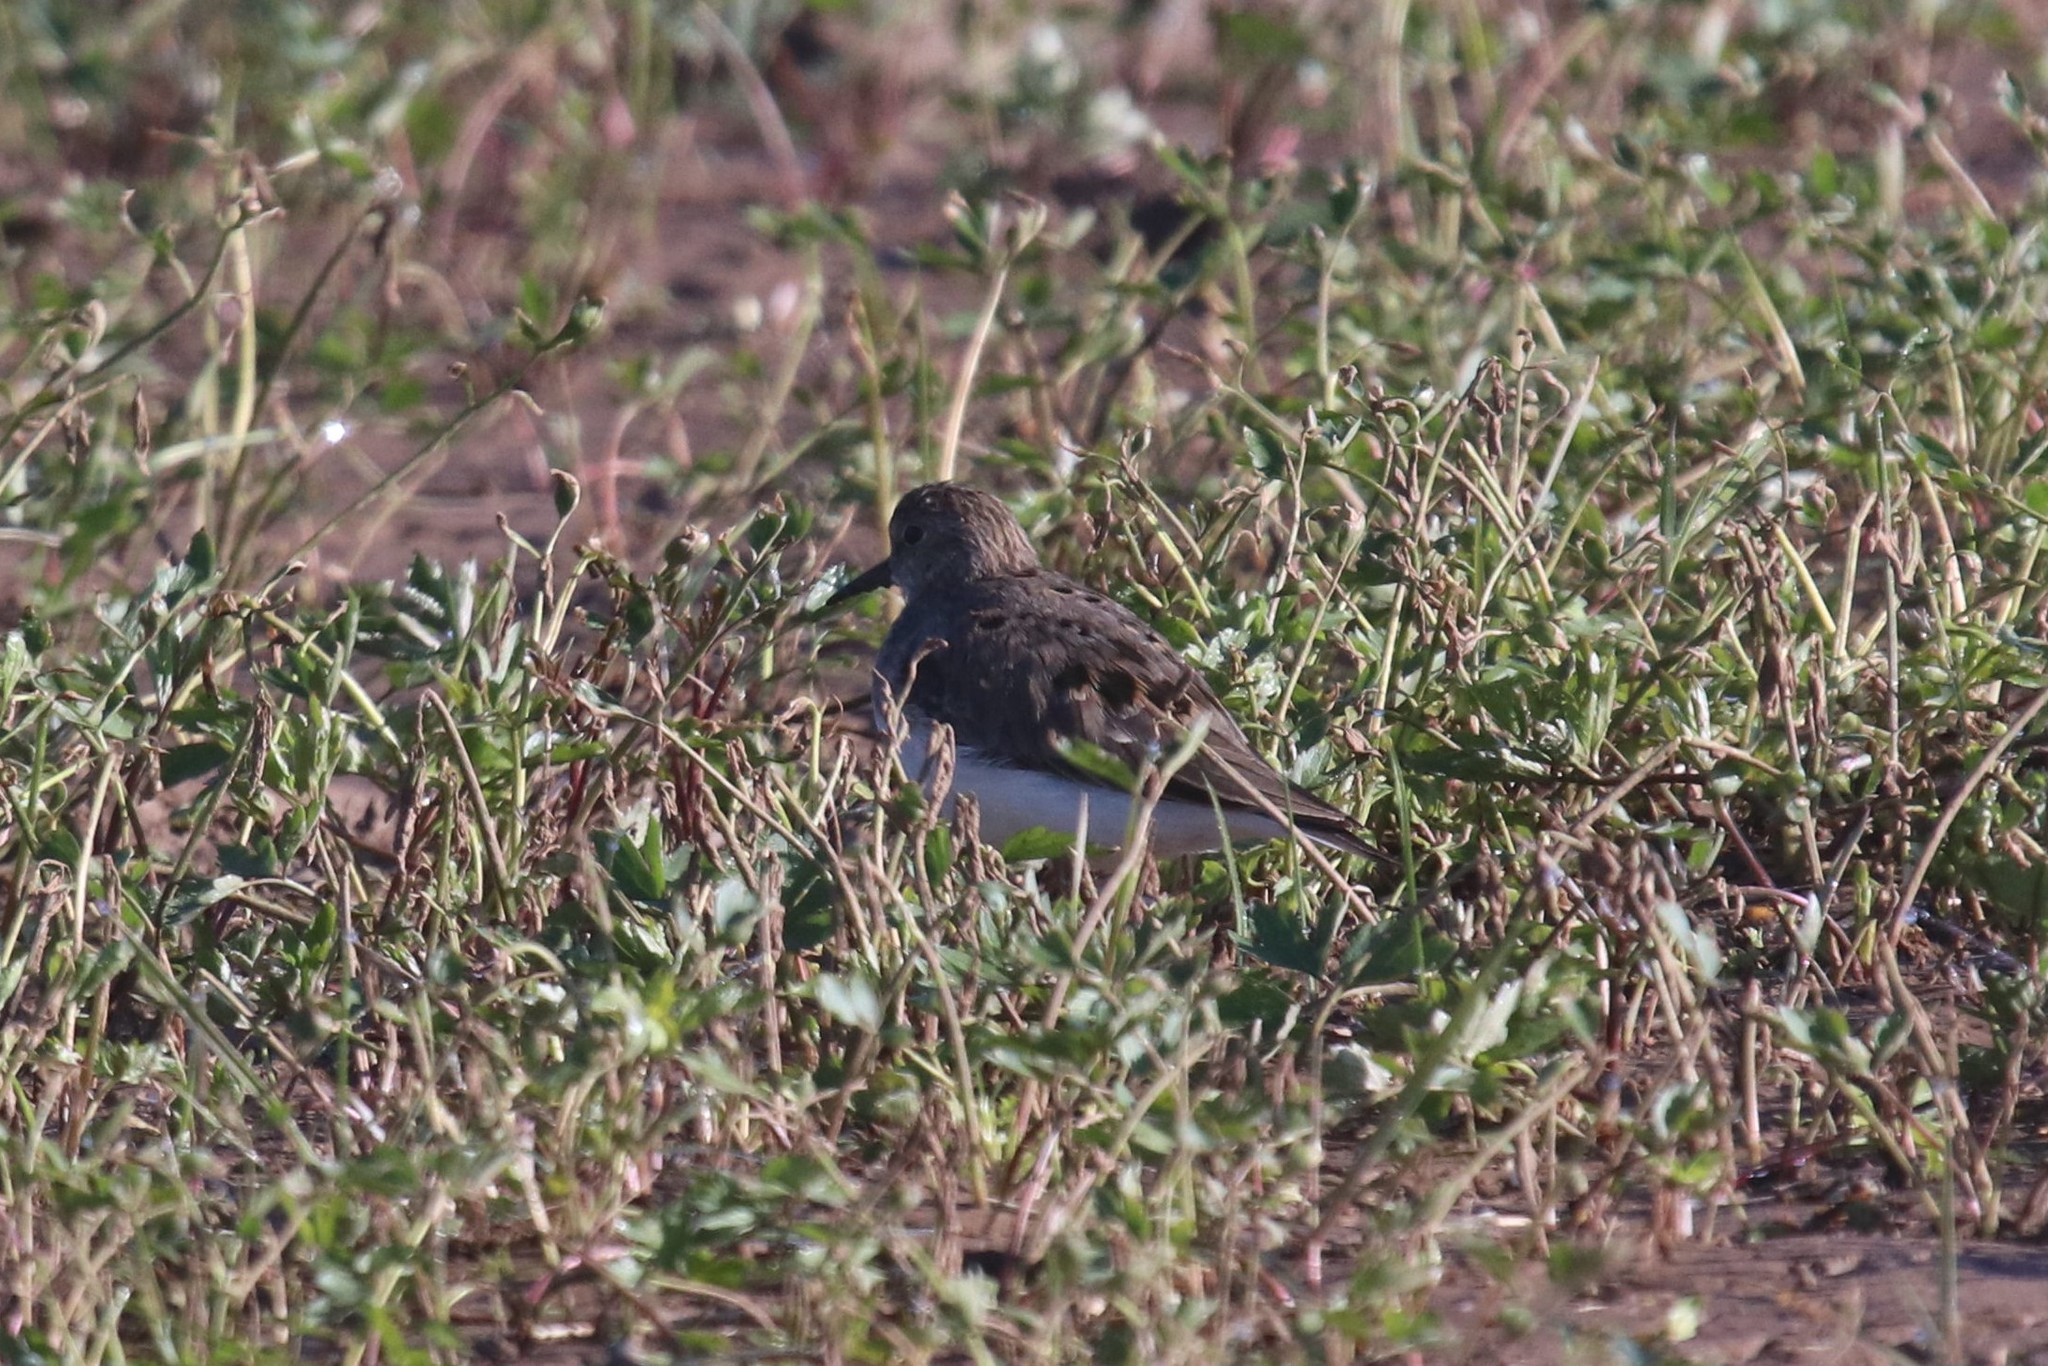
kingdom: Animalia
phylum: Chordata
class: Aves
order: Charadriiformes
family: Scolopacidae
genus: Calidris
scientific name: Calidris temminckii
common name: Temminck's stint
